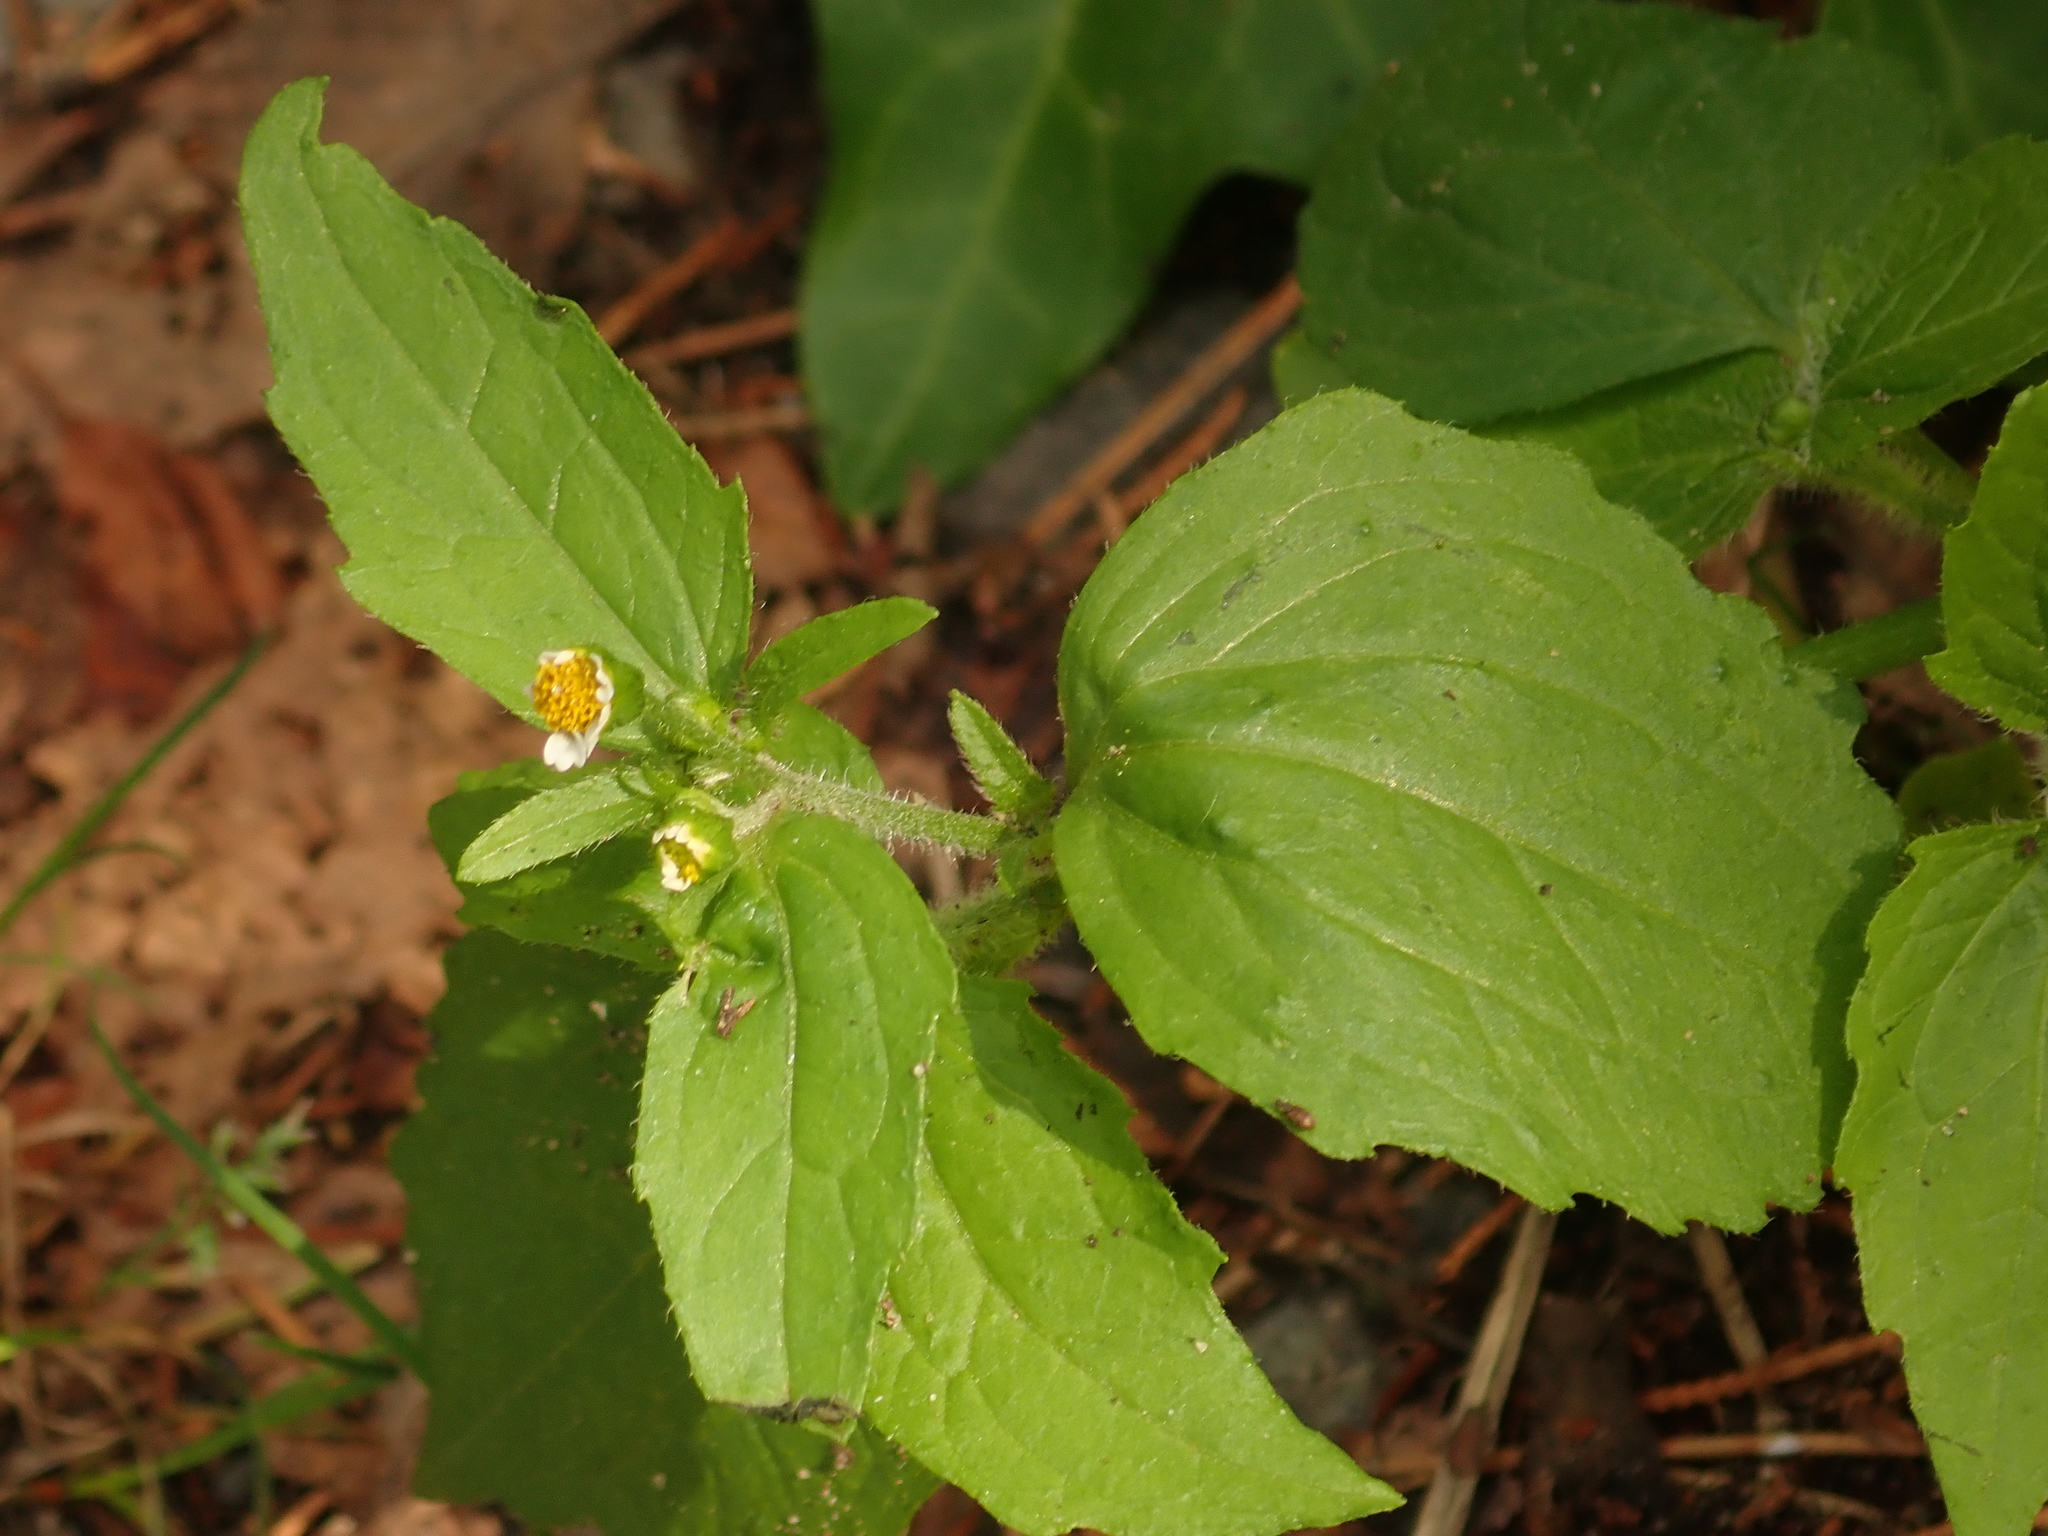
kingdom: Plantae
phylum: Tracheophyta
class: Magnoliopsida
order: Asterales
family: Asteraceae
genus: Galinsoga
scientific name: Galinsoga quadriradiata
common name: Shaggy soldier
